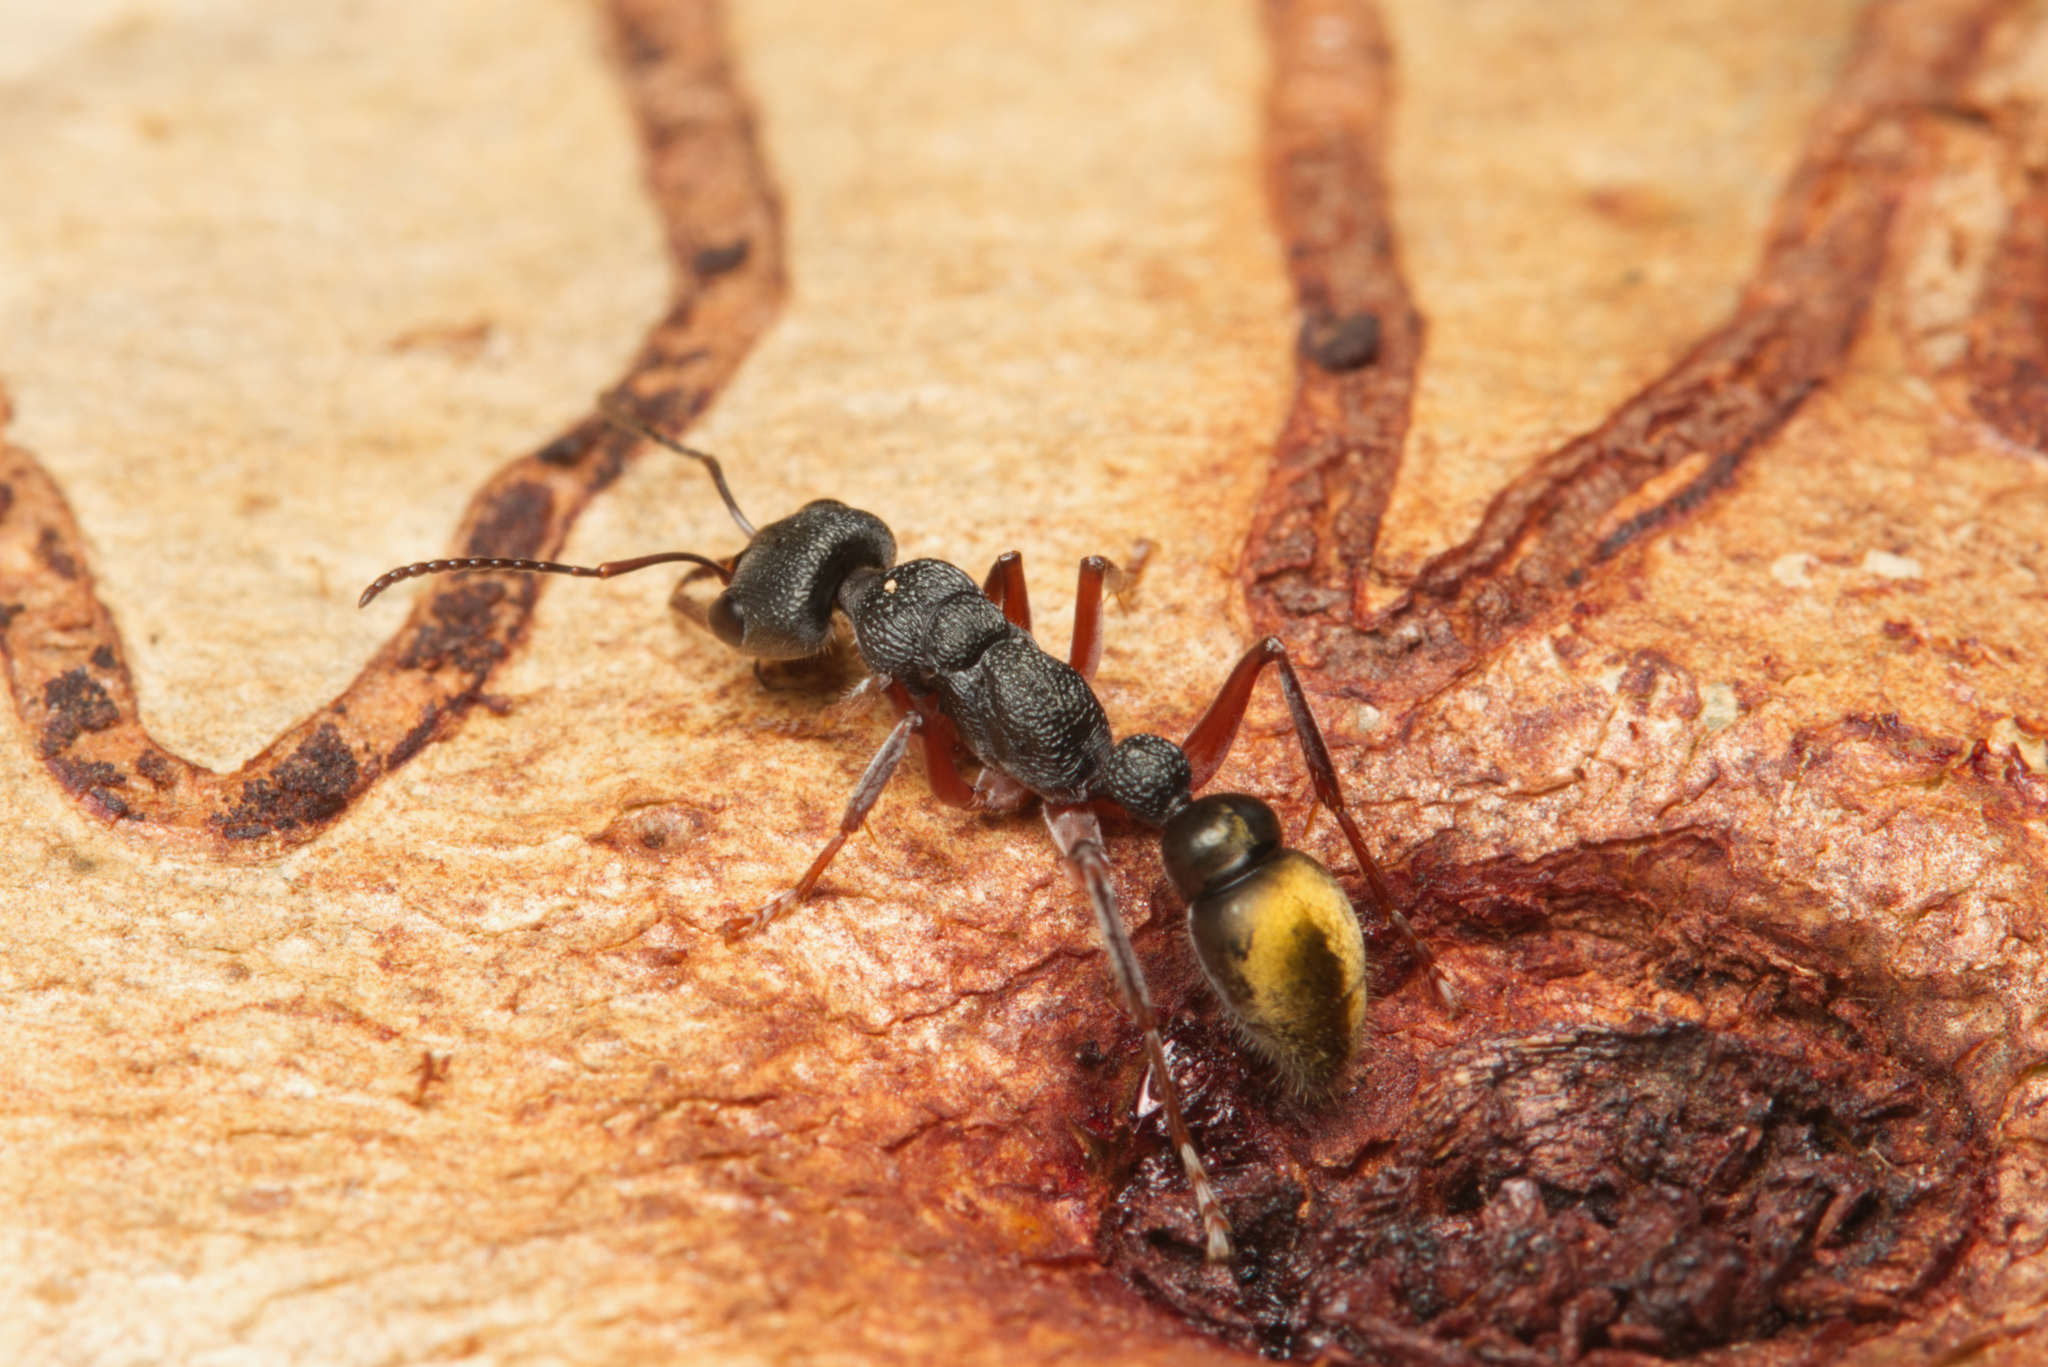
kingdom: Animalia
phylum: Arthropoda
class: Insecta
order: Hymenoptera
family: Formicidae
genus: Myrmecia
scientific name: Myrmecia fulvipes
